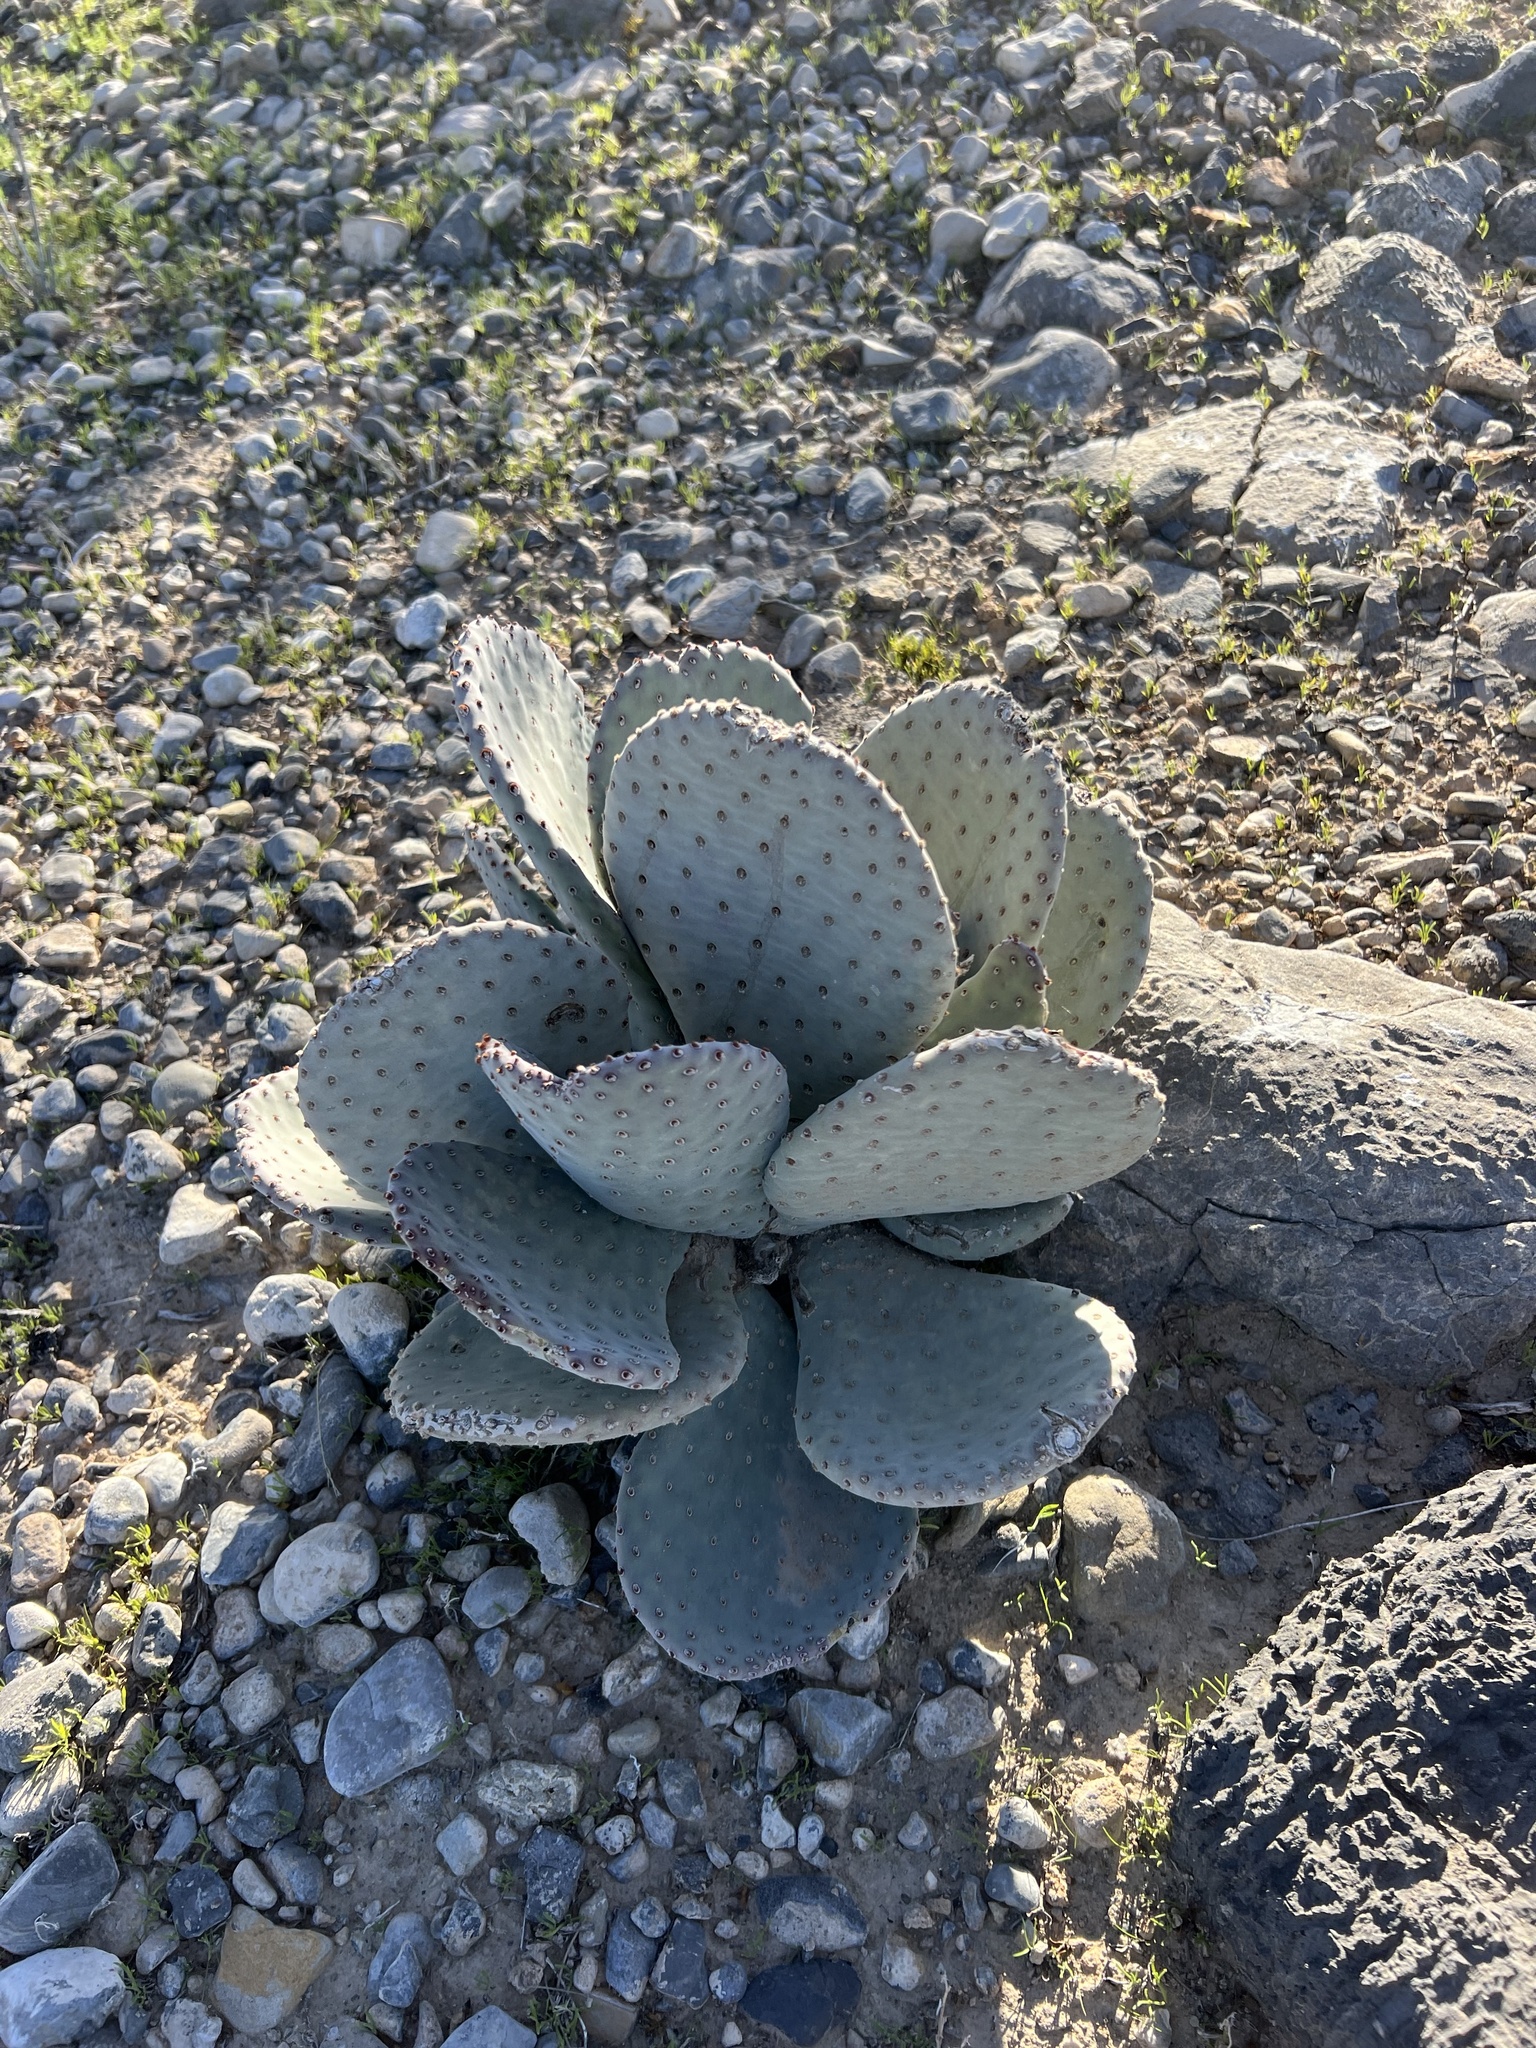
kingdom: Plantae
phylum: Tracheophyta
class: Magnoliopsida
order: Caryophyllales
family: Cactaceae
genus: Opuntia
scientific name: Opuntia basilaris
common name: Beavertail prickly-pear
